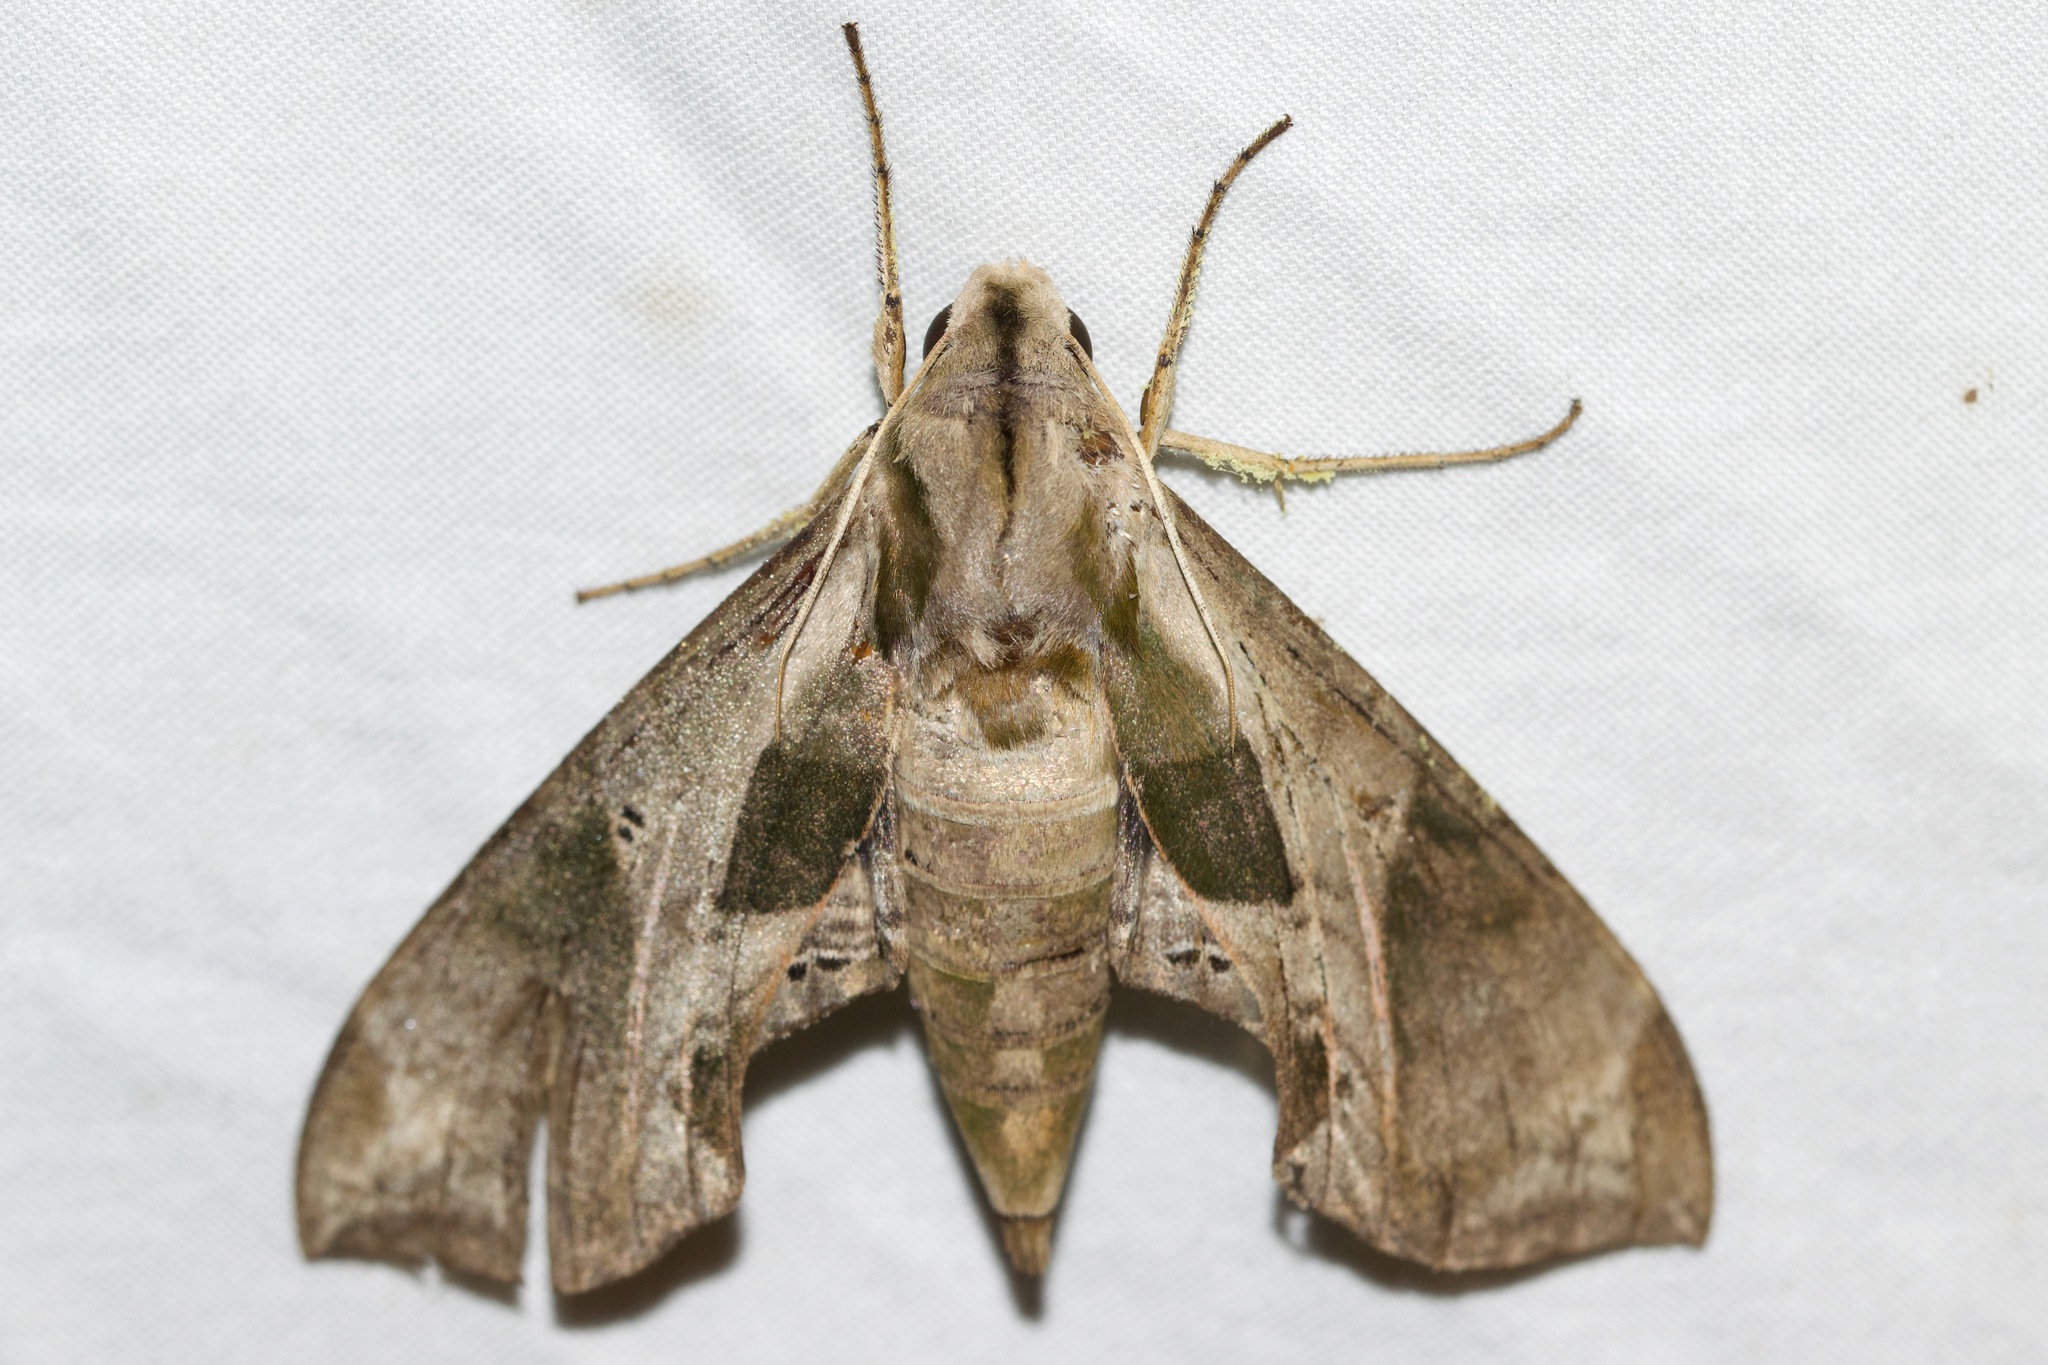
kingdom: Animalia
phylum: Arthropoda
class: Insecta
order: Lepidoptera
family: Sphingidae
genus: Eumorpha
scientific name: Eumorpha pandorus
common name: Pandora sphinx
